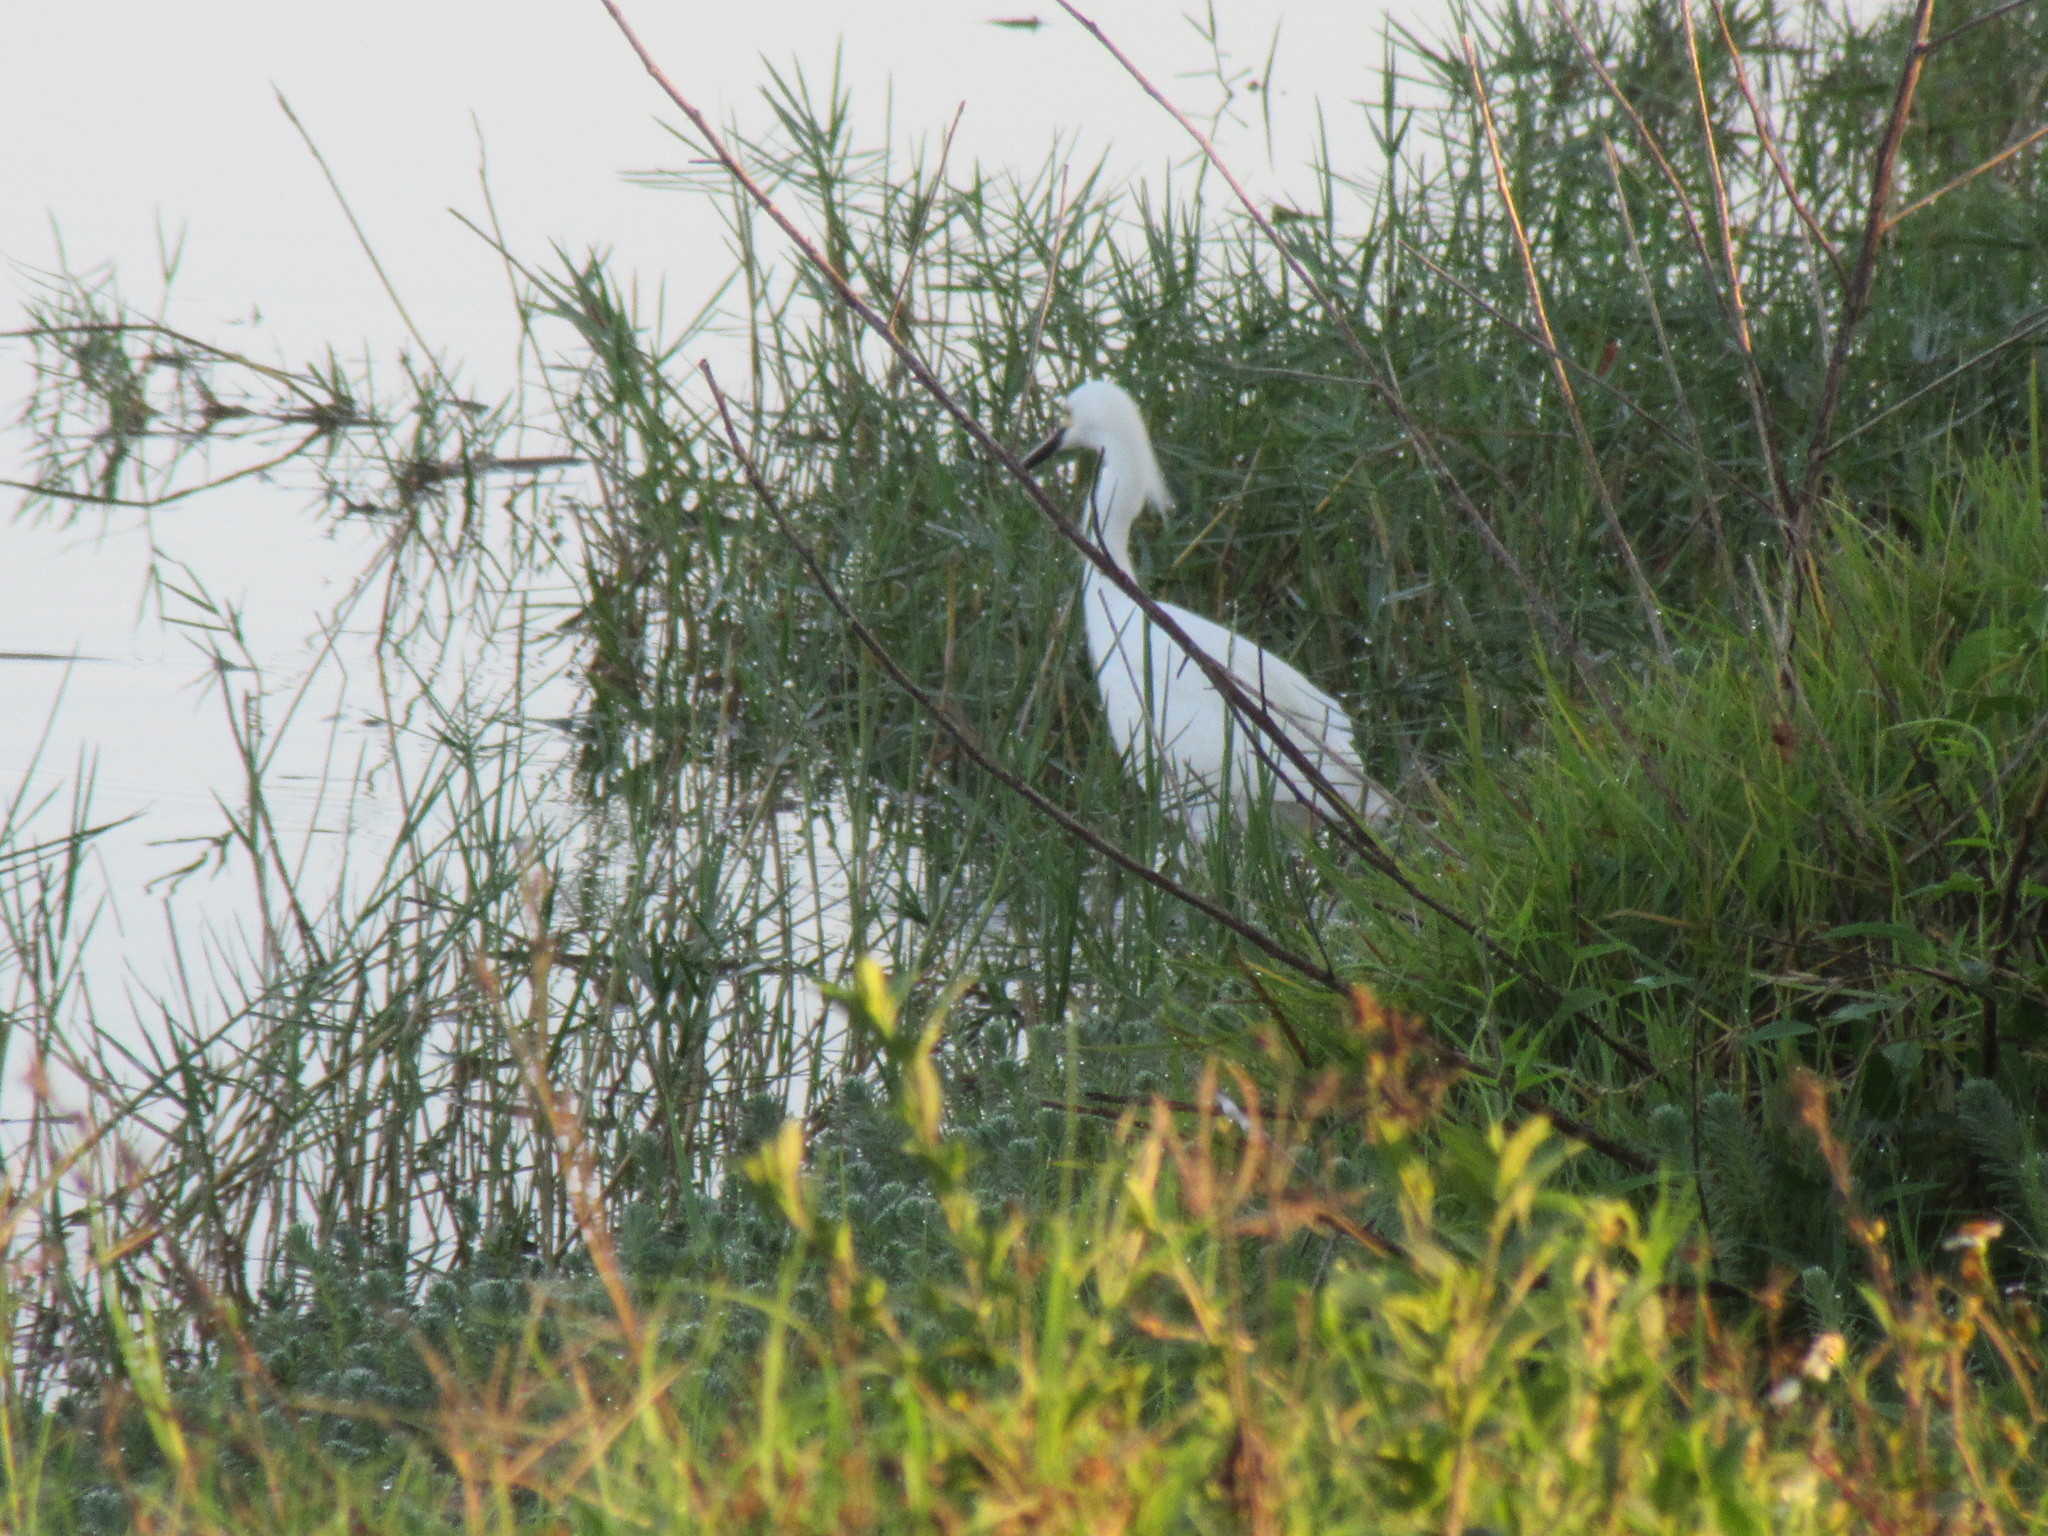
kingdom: Animalia
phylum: Chordata
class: Aves
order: Pelecaniformes
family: Ardeidae
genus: Egretta
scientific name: Egretta thula
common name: Snowy egret
